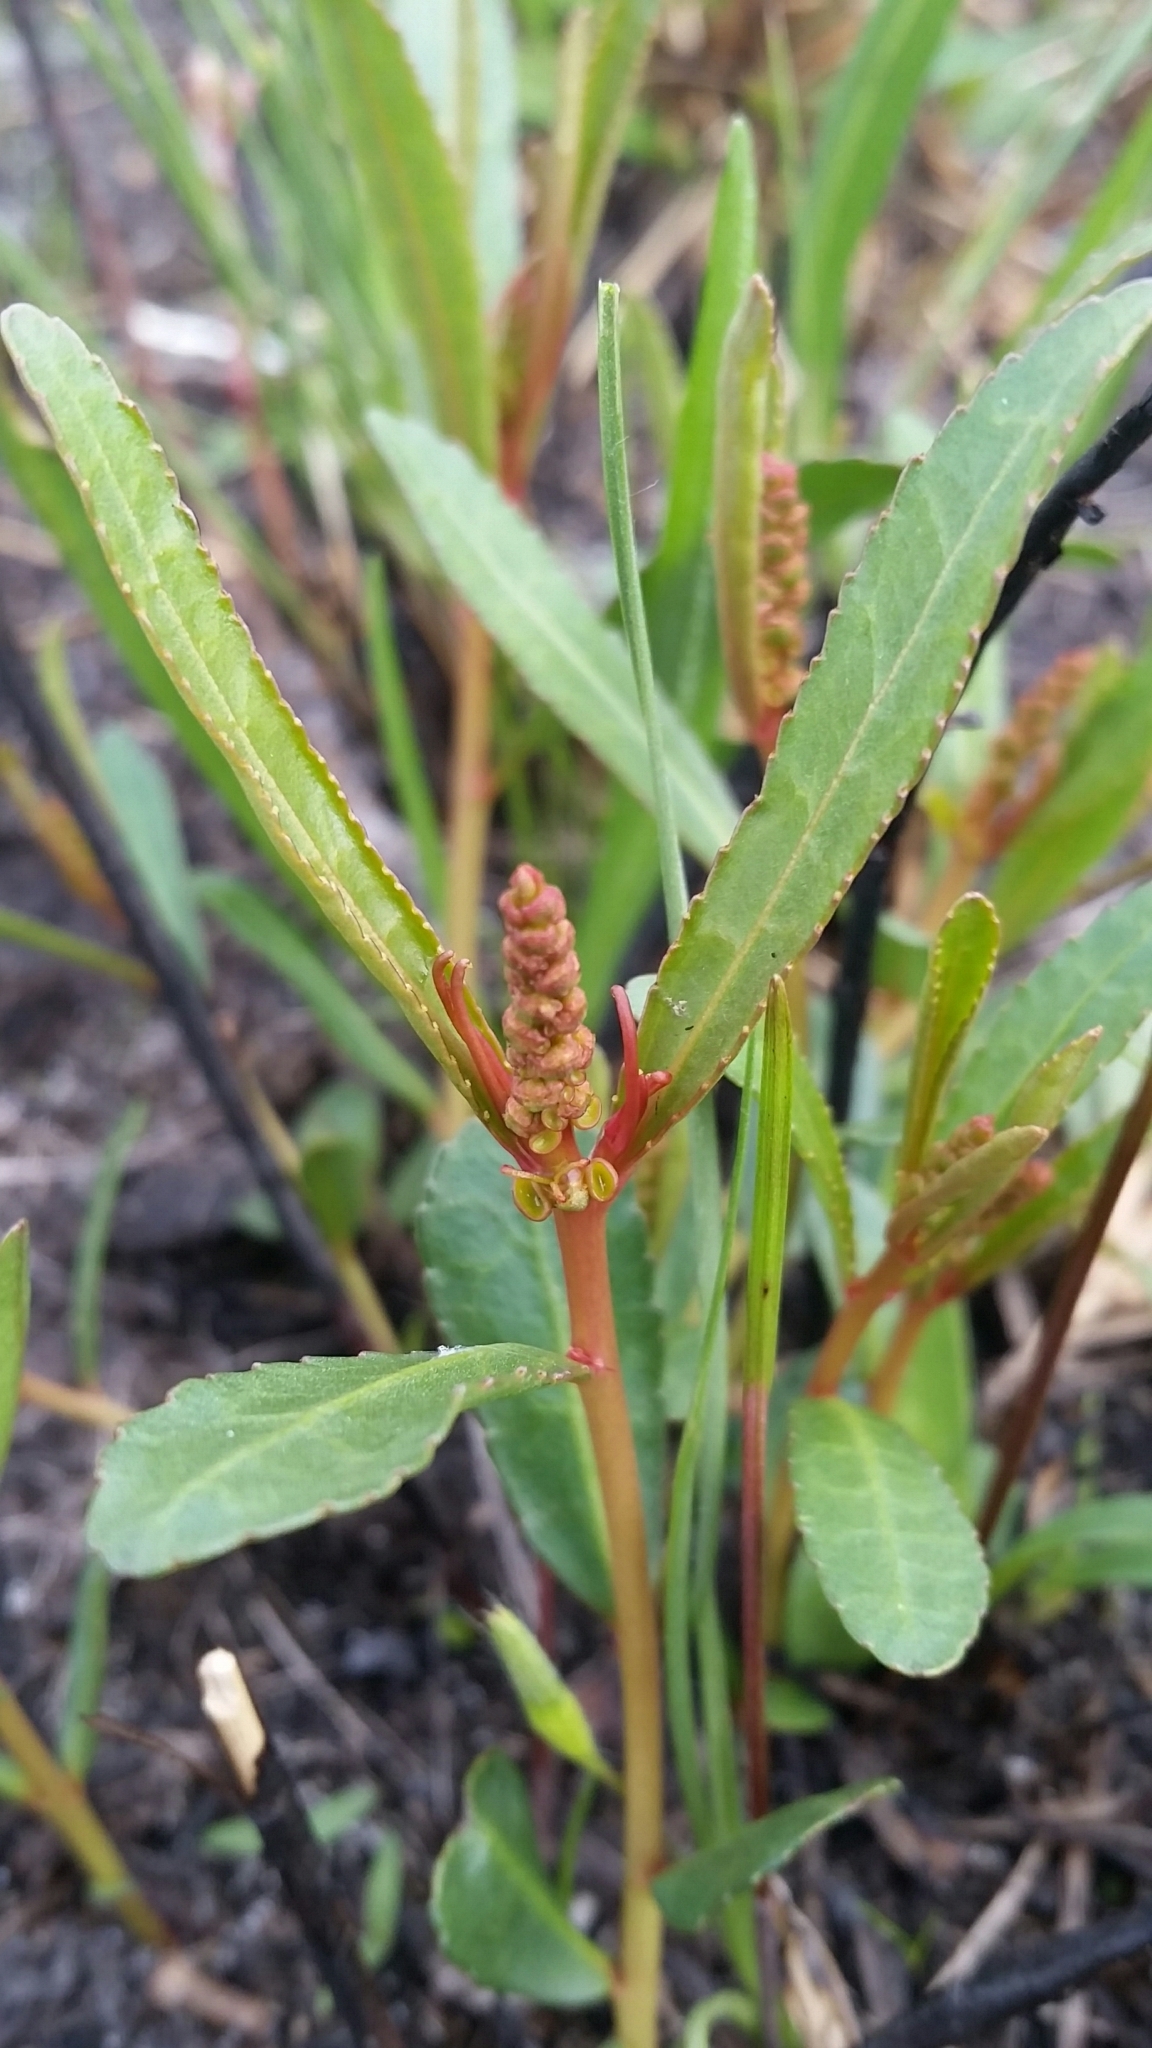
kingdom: Plantae
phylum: Tracheophyta
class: Magnoliopsida
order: Malpighiales
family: Euphorbiaceae
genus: Stillingia
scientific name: Stillingia sylvatica
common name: Queen's-delight
